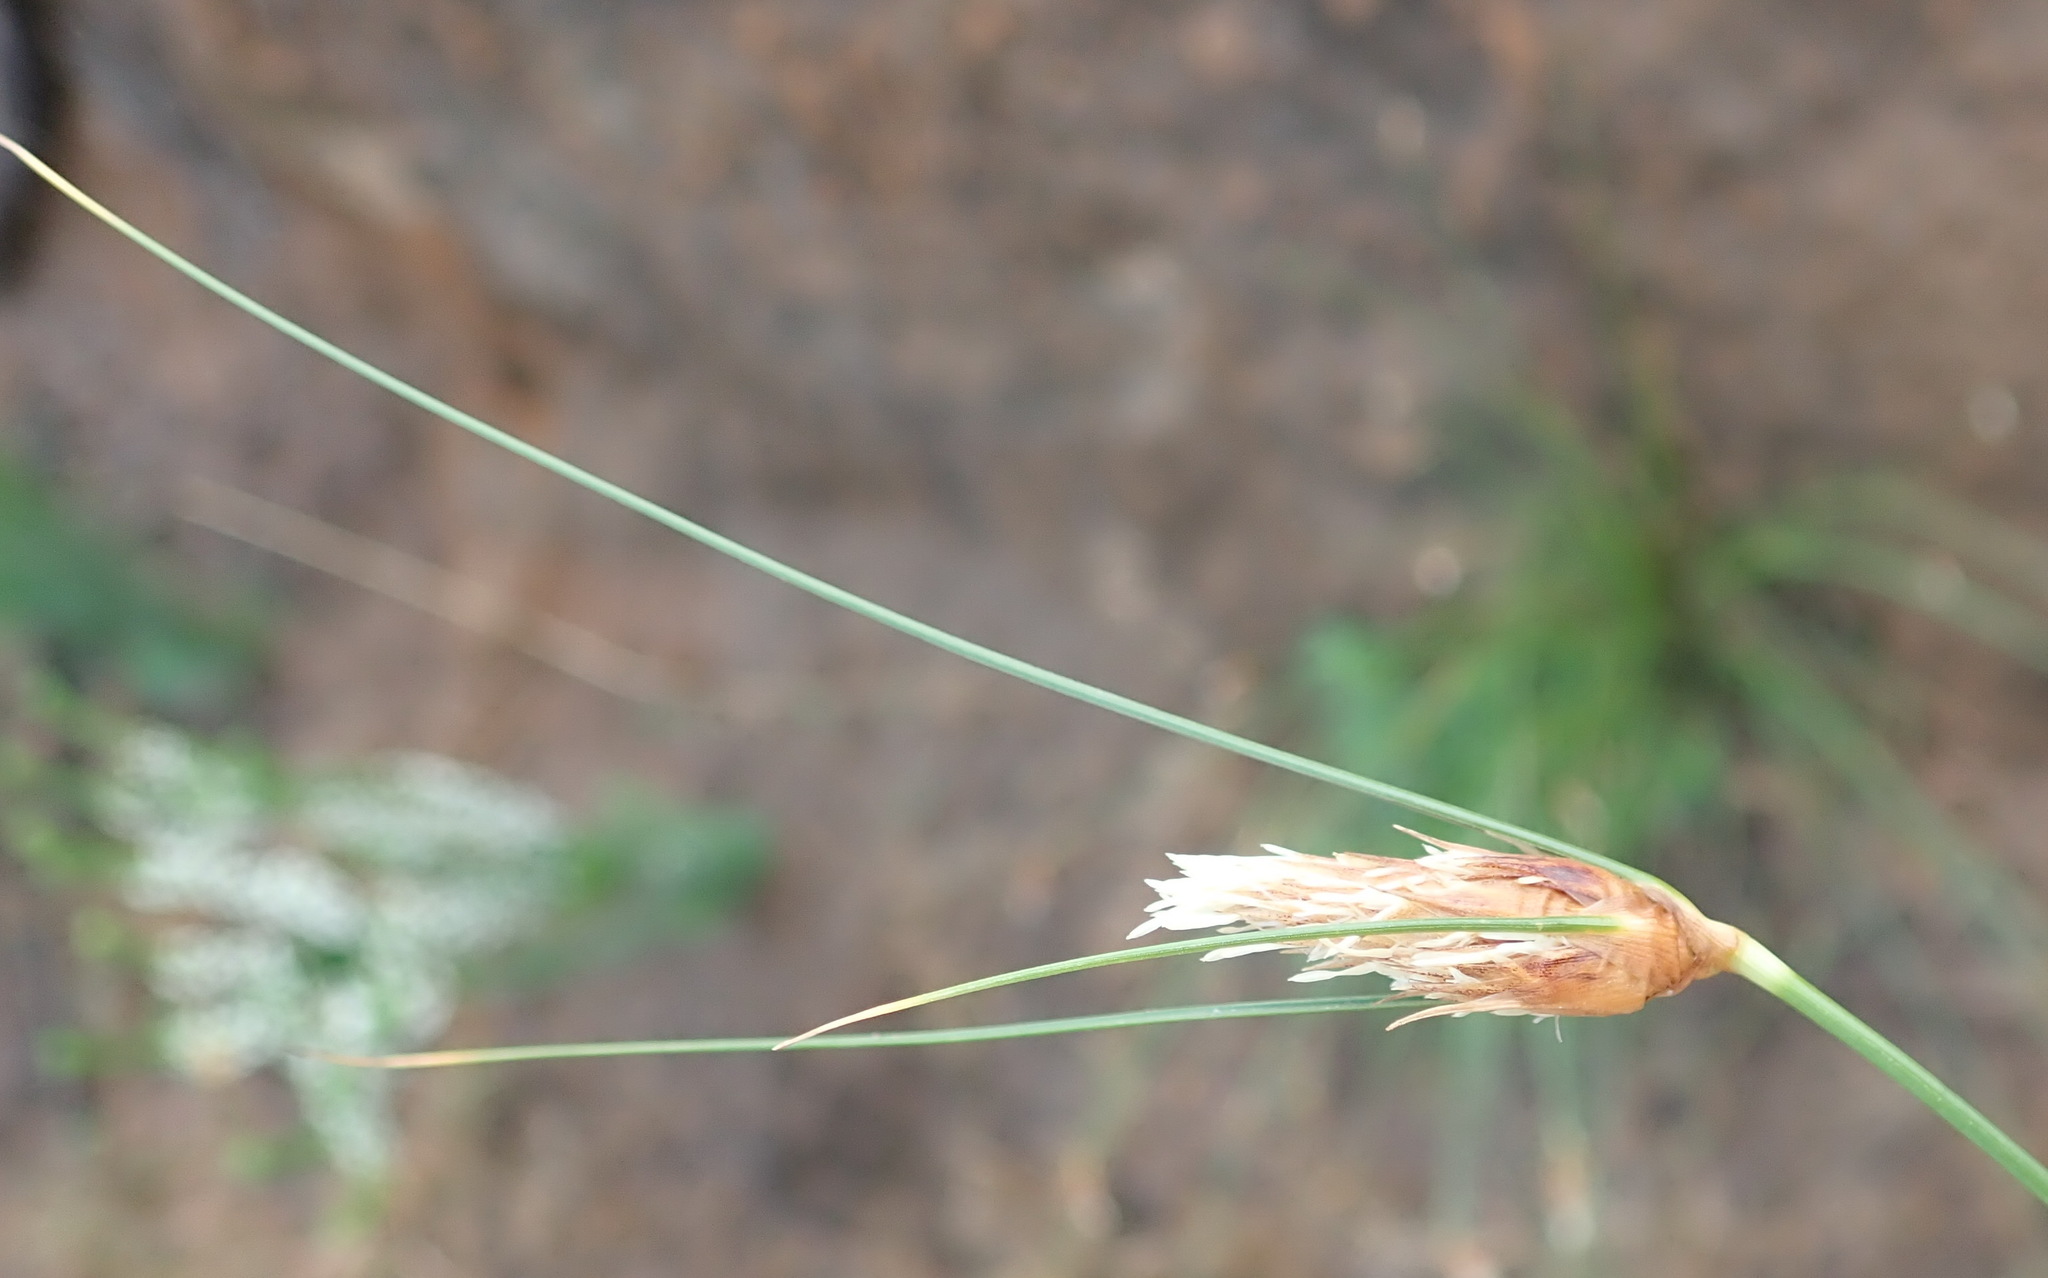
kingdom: Plantae
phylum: Tracheophyta
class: Liliopsida
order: Poales
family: Cyperaceae
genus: Ficinia
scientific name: Ficinia nigrescens
